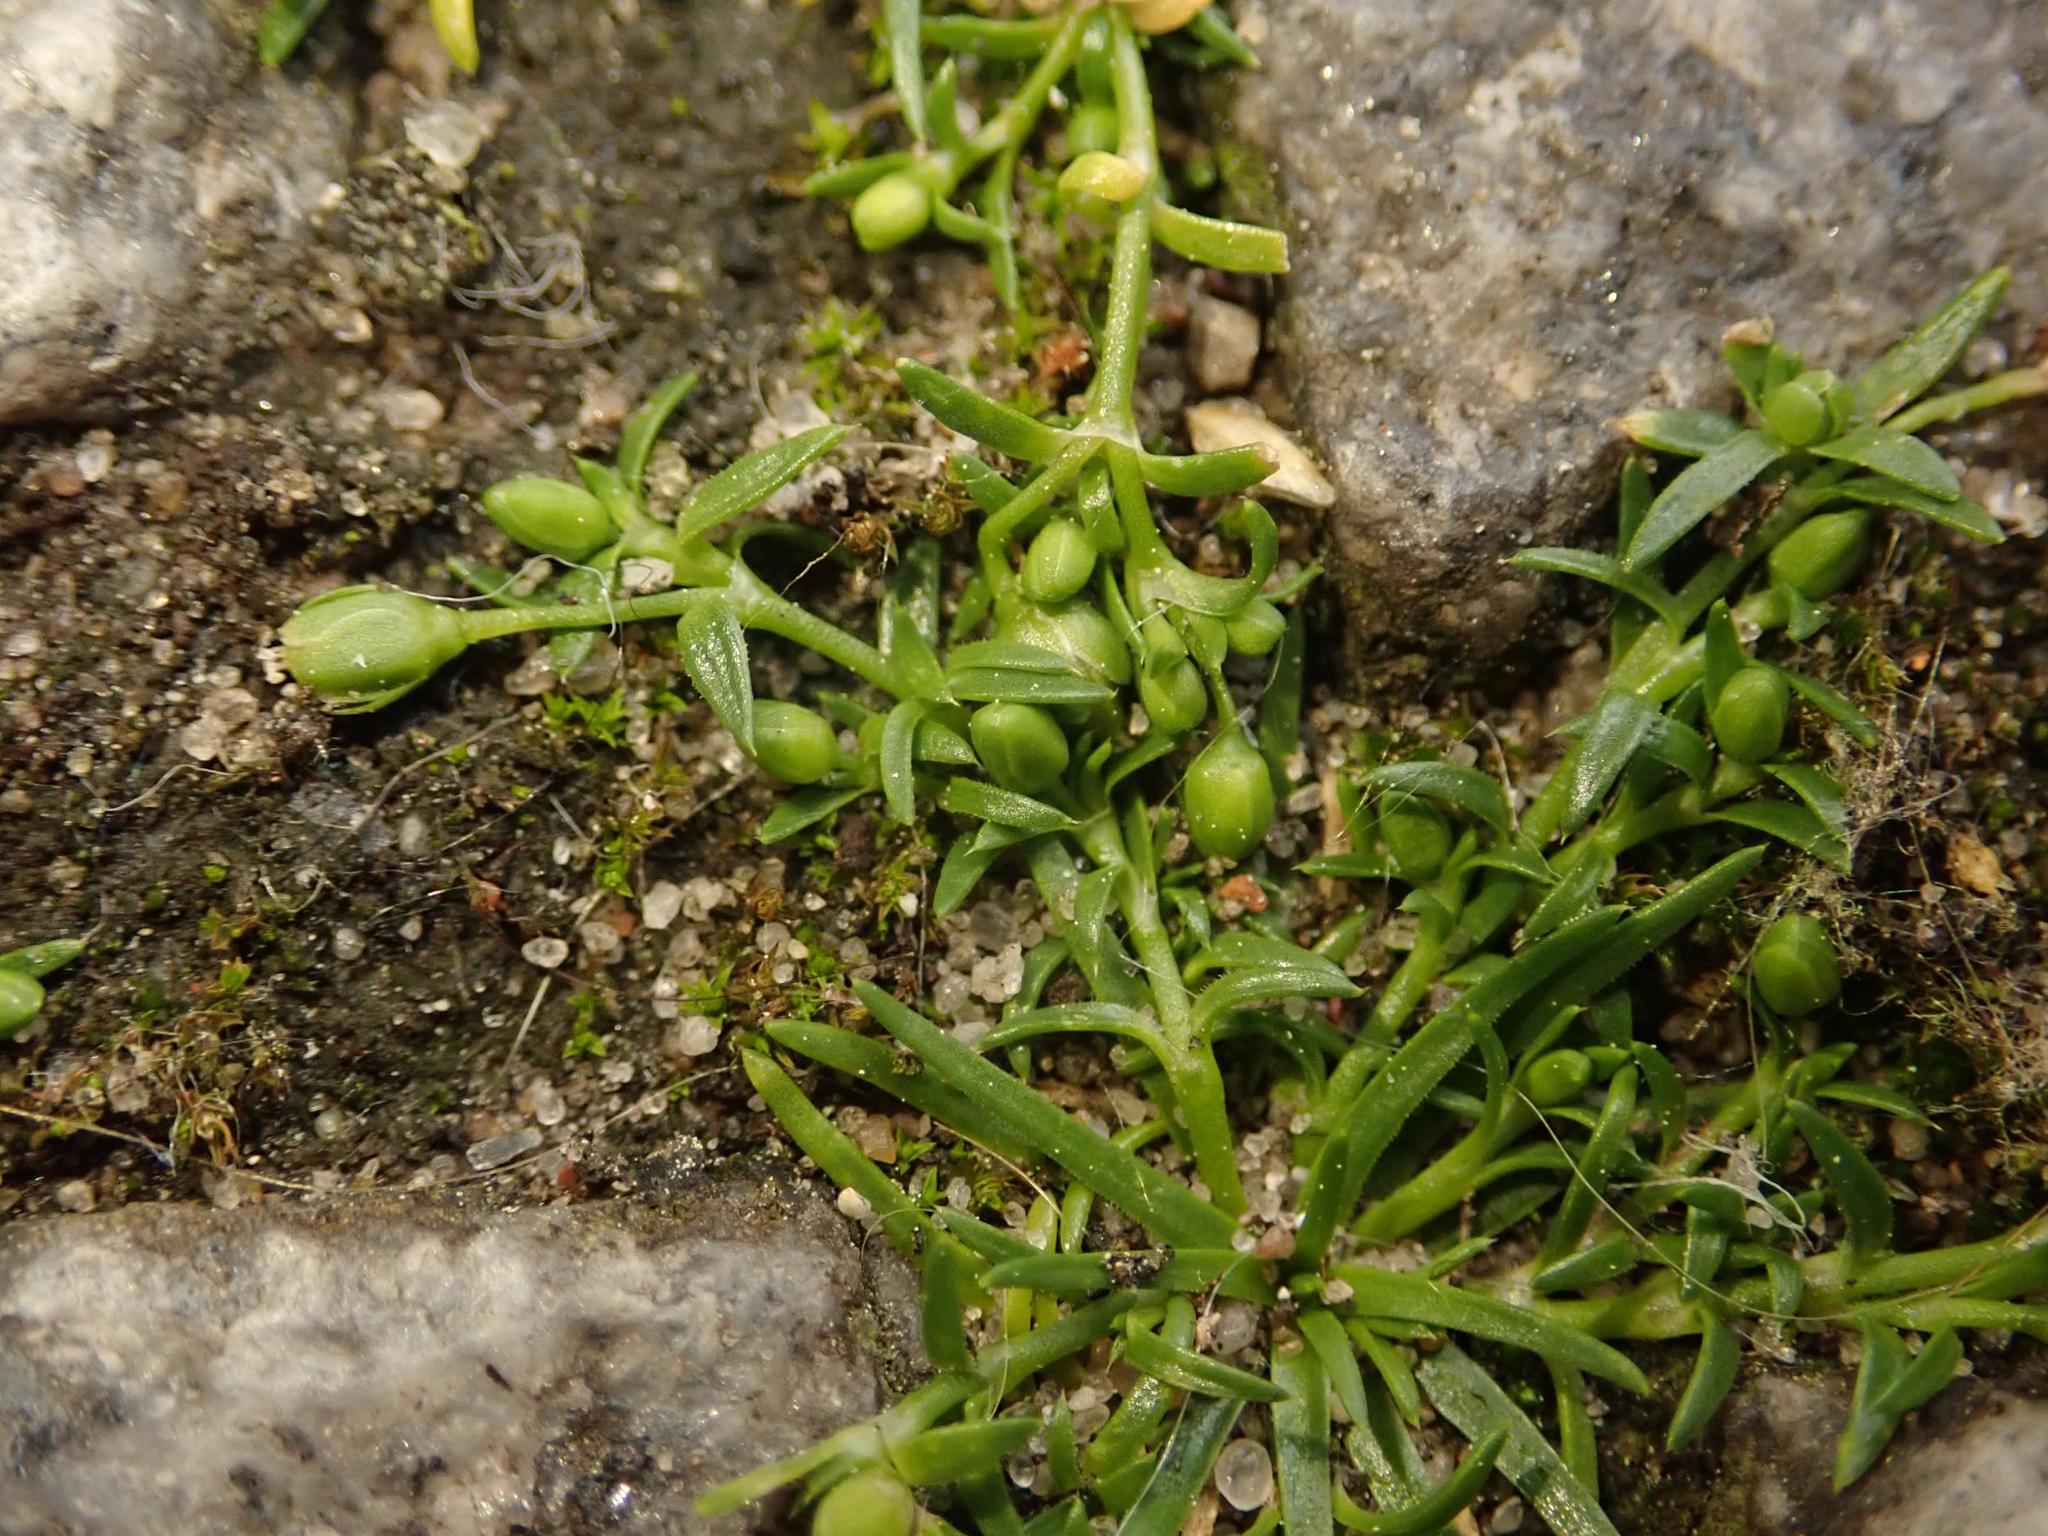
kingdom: Plantae
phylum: Tracheophyta
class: Magnoliopsida
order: Caryophyllales
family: Caryophyllaceae
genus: Sagina
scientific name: Sagina procumbens
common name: Procumbent pearlwort
